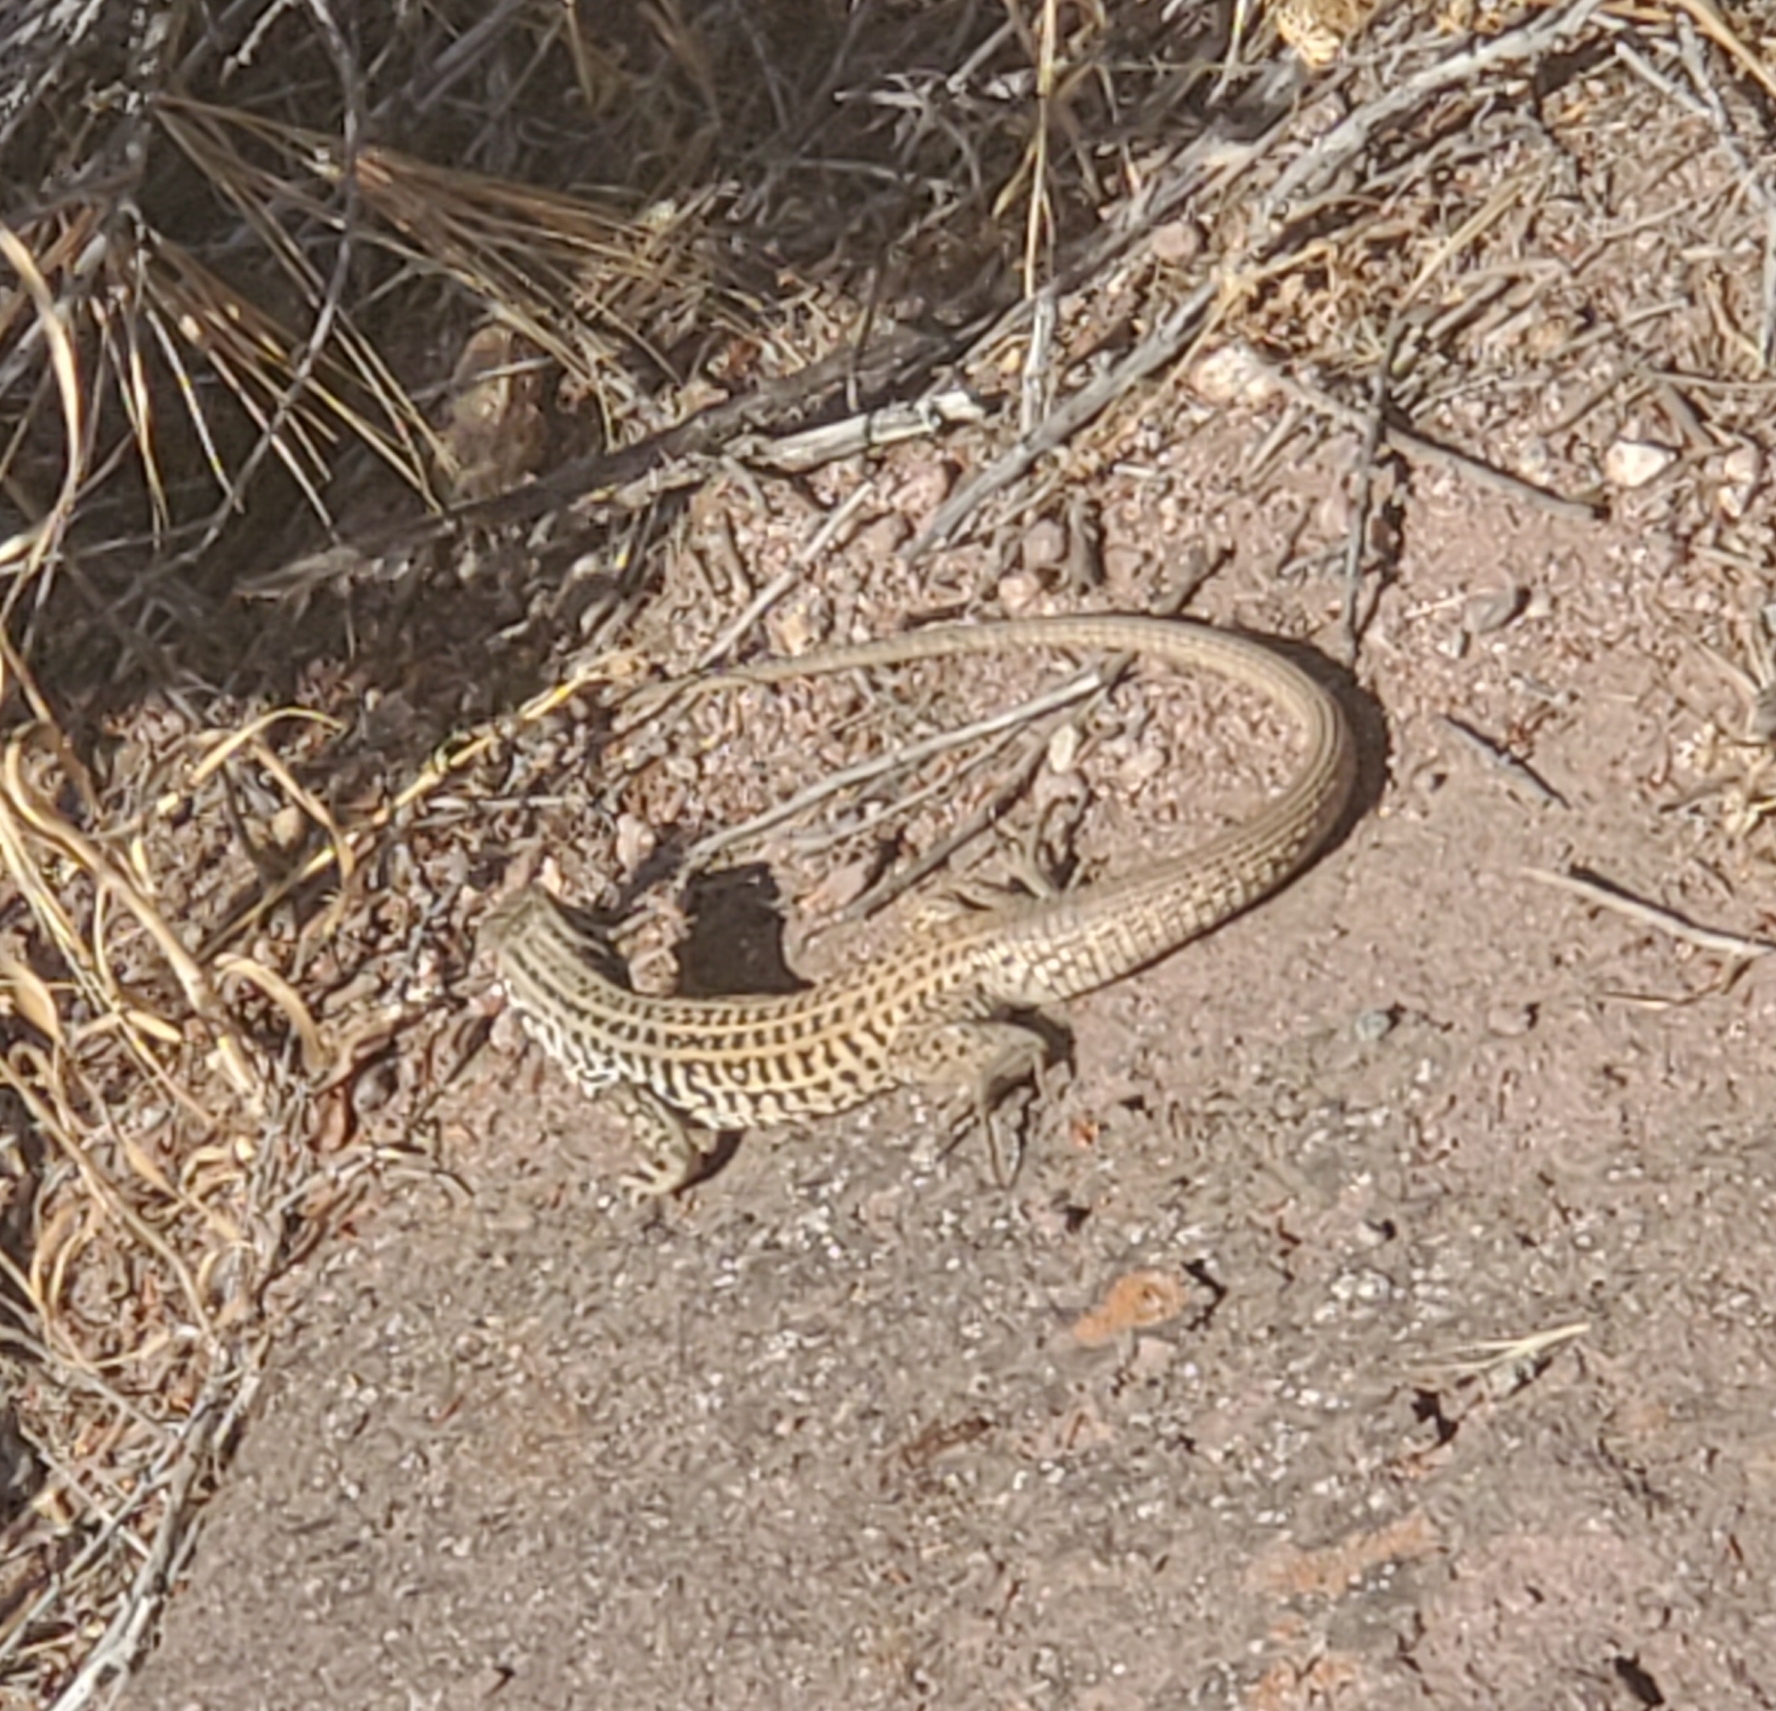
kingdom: Animalia
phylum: Chordata
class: Squamata
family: Teiidae
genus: Aspidoscelis
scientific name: Aspidoscelis tigris
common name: Tiger whiptail
